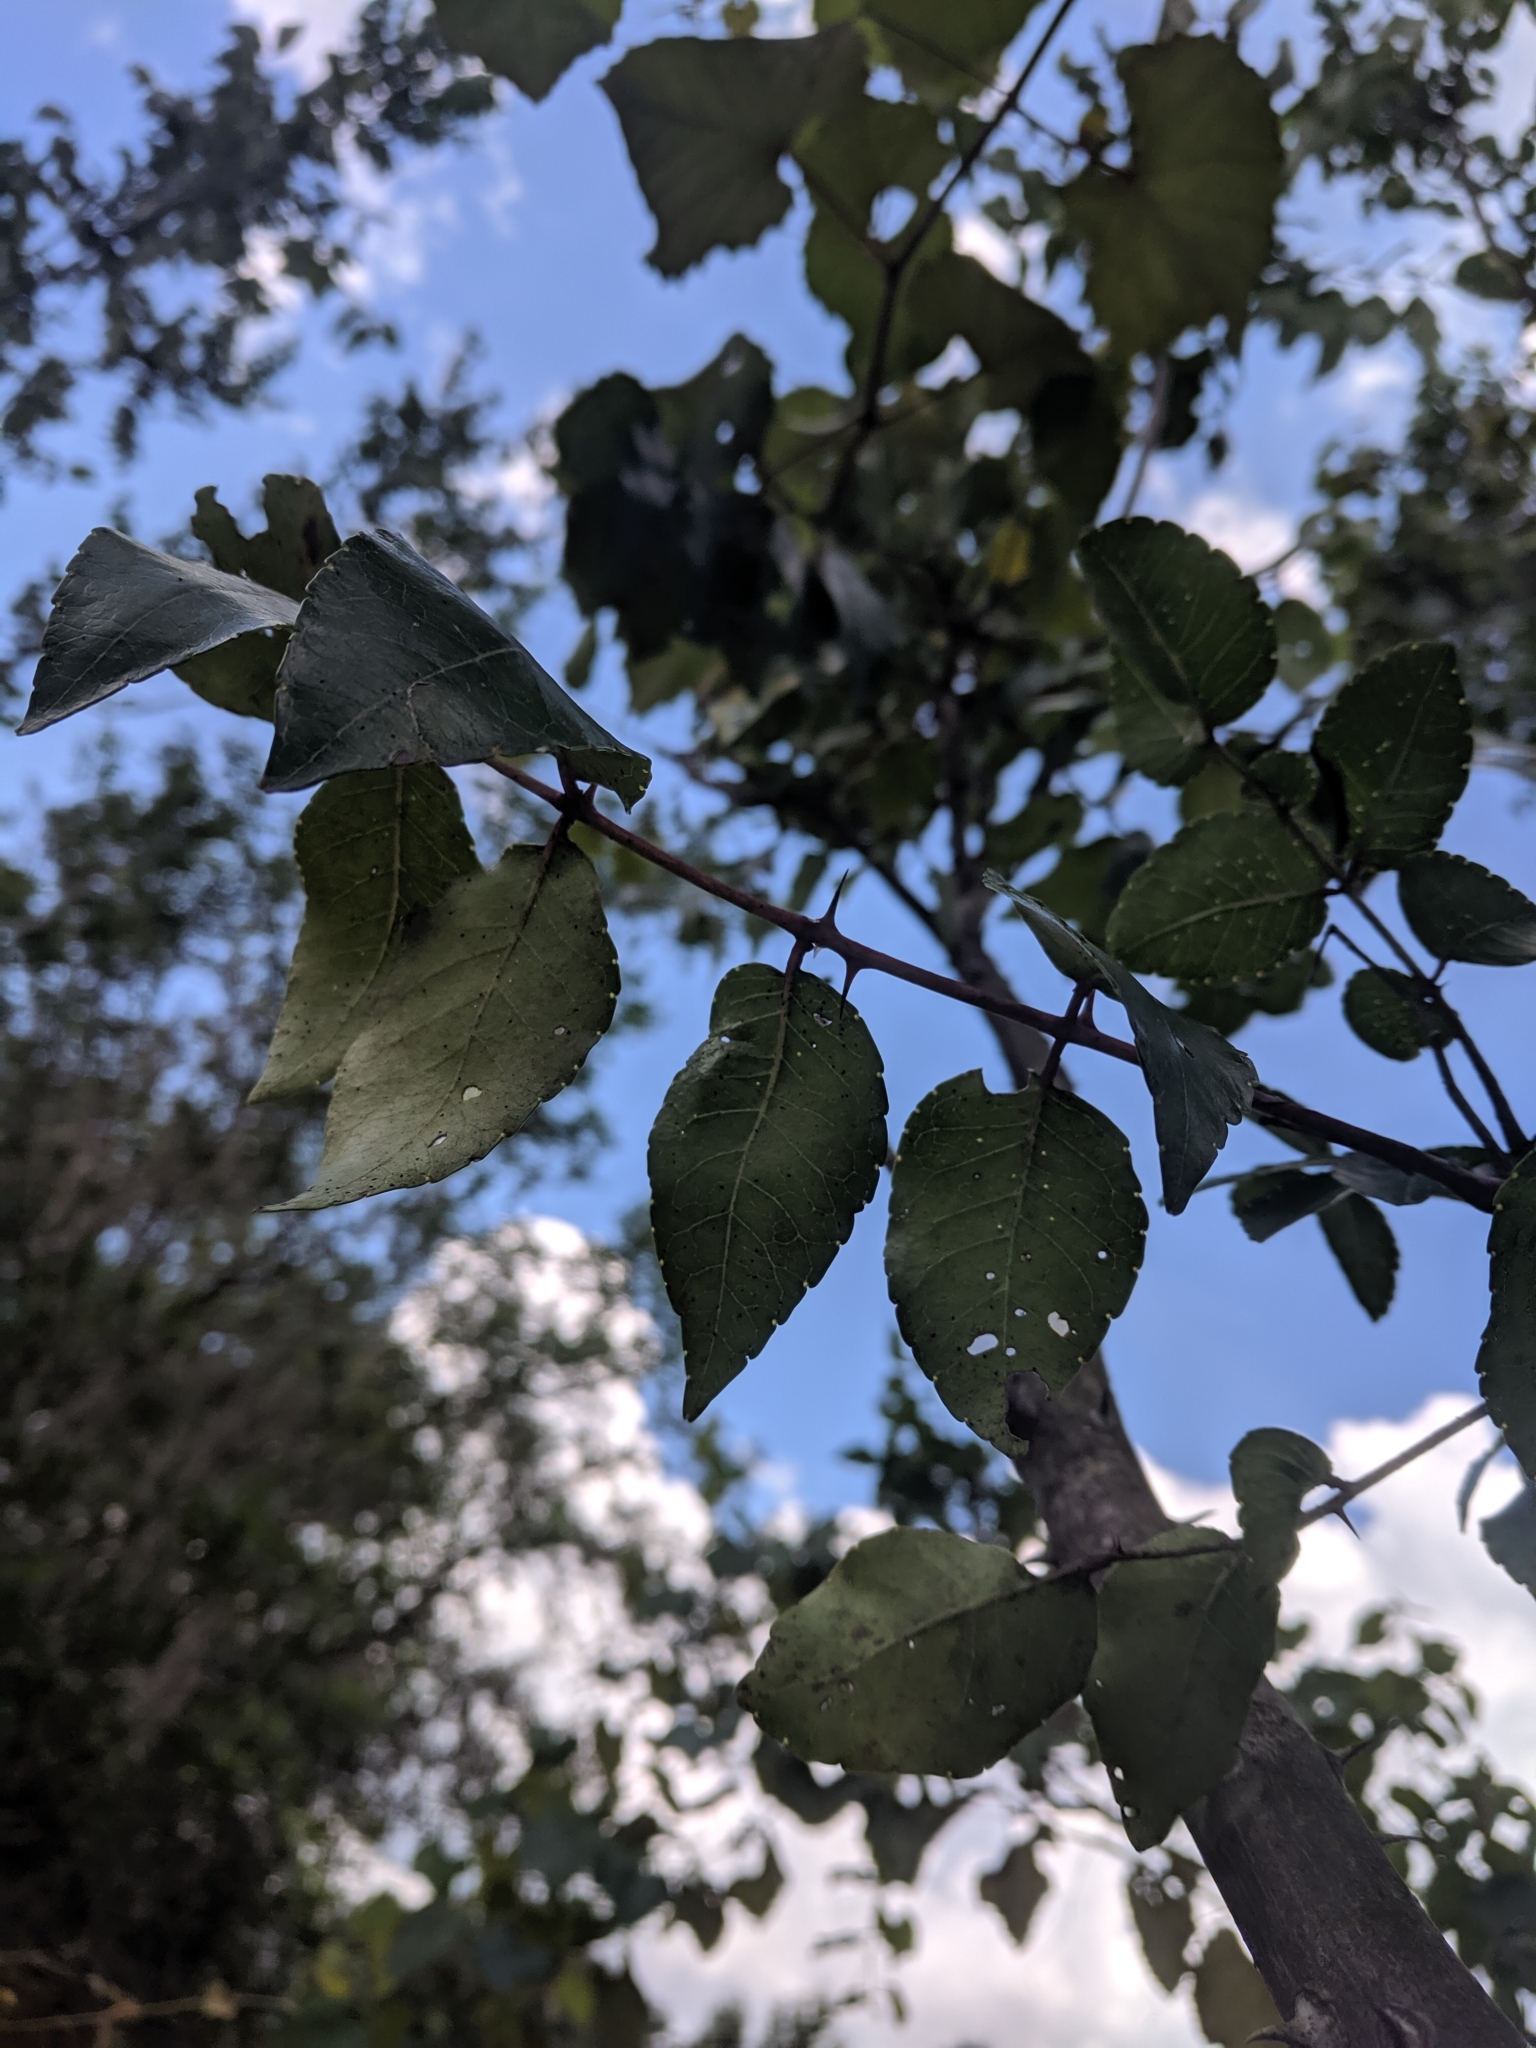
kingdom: Plantae
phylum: Tracheophyta
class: Magnoliopsida
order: Sapindales
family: Rutaceae
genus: Zanthoxylum
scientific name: Zanthoxylum clava-herculis
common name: Hercules'-club
